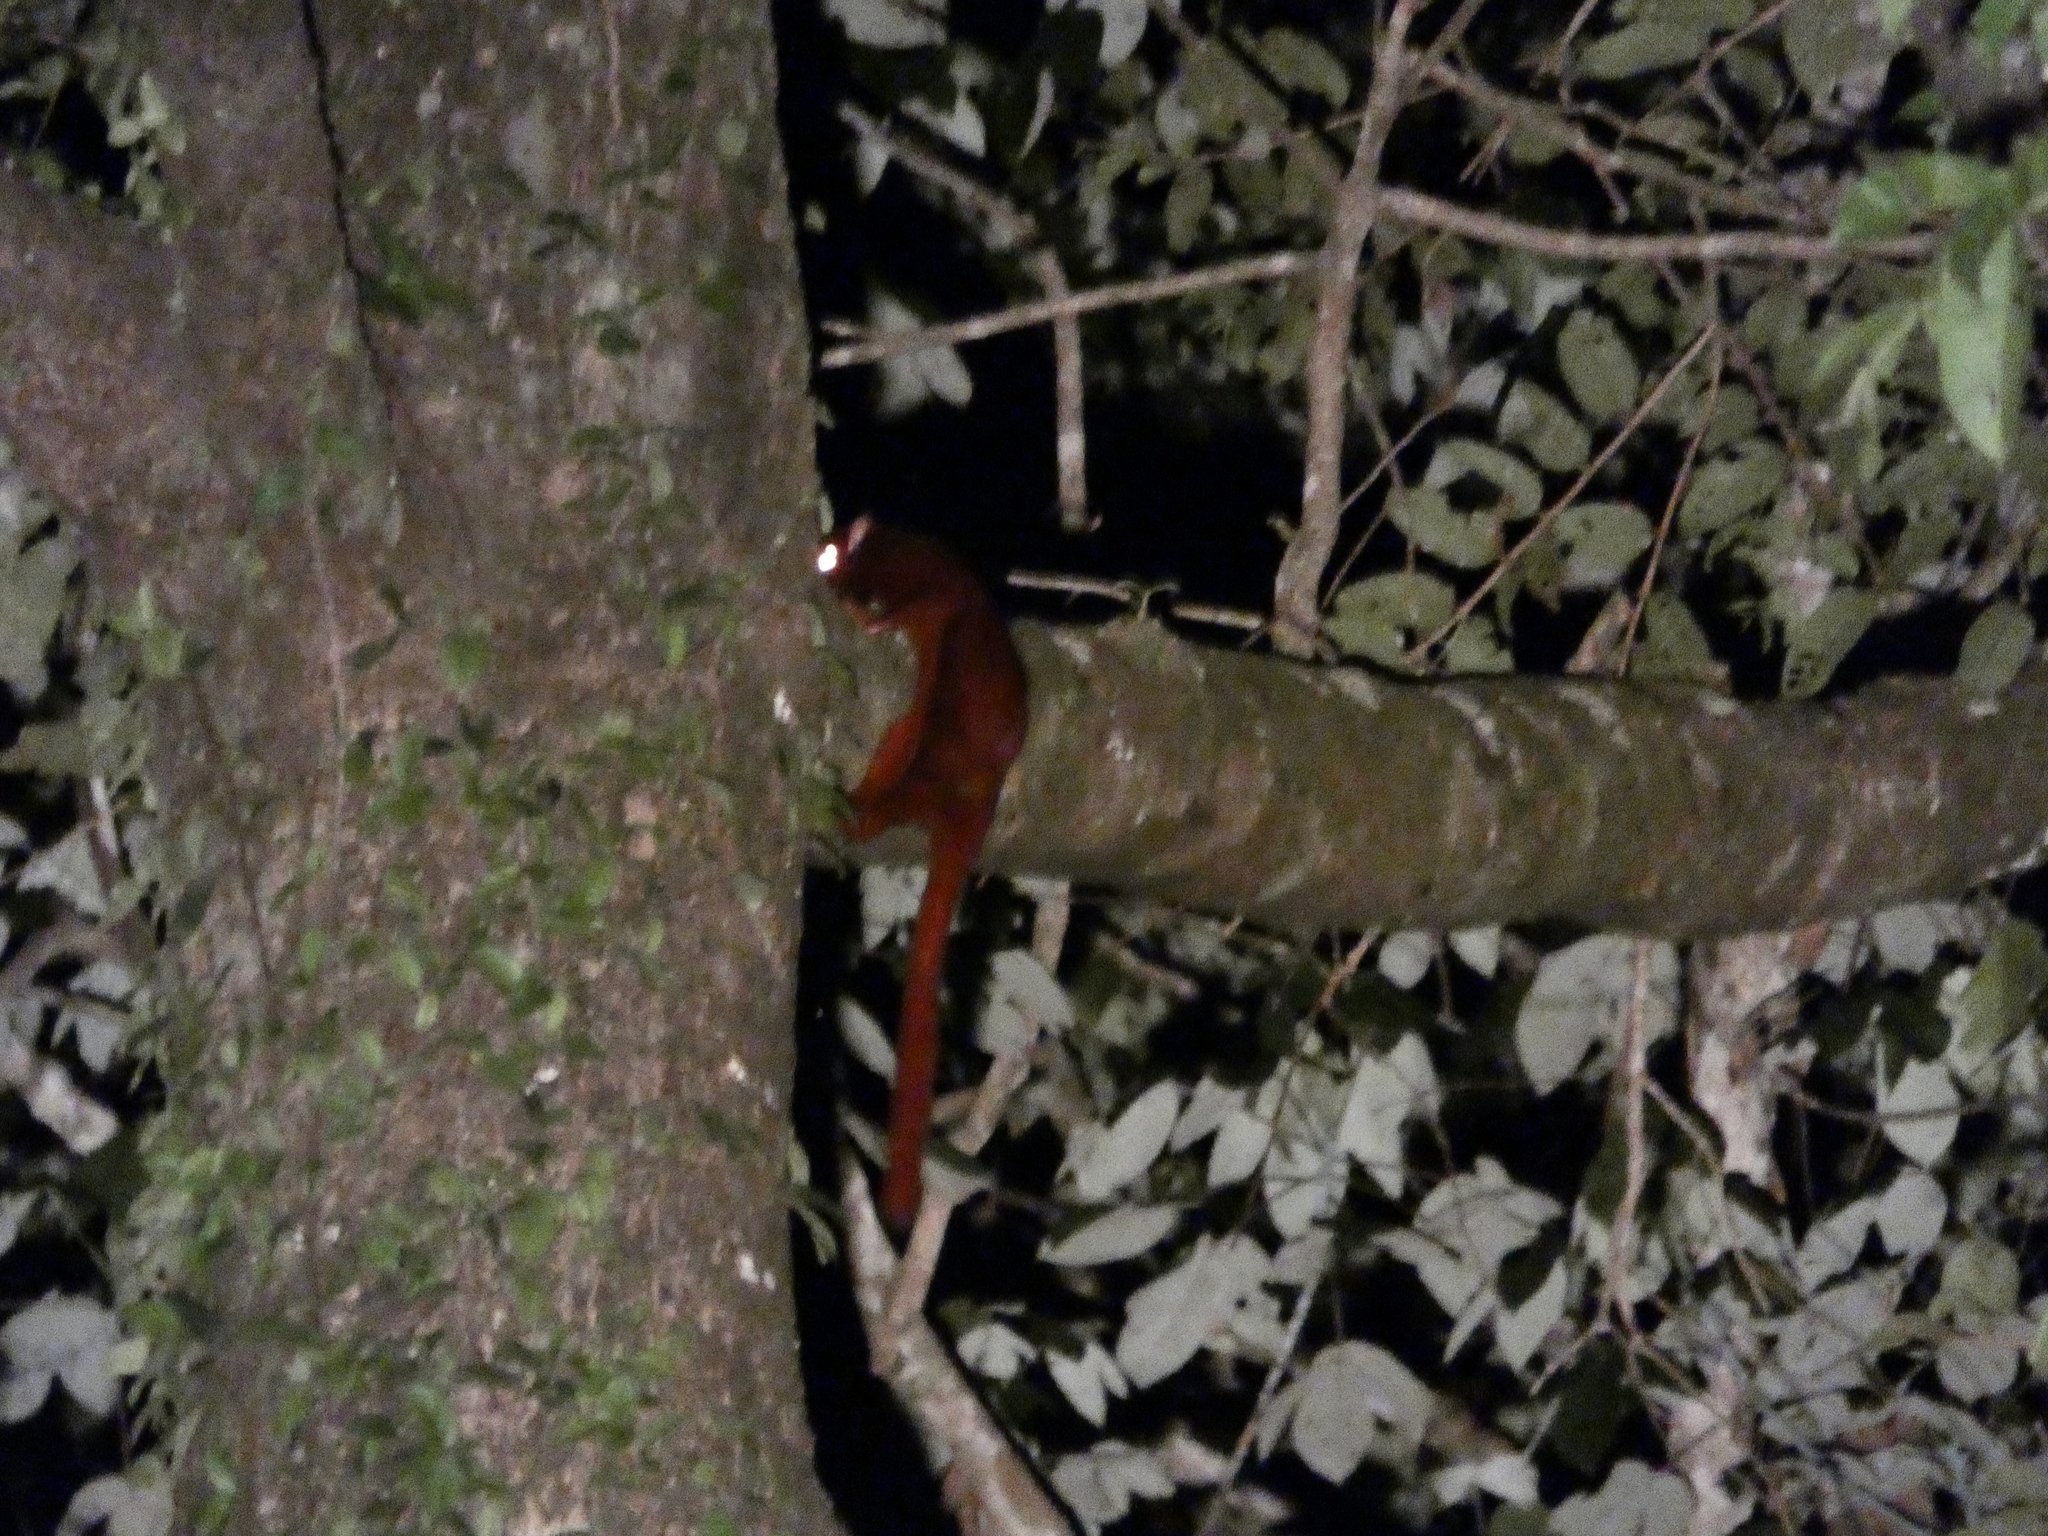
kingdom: Animalia
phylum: Chordata
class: Mammalia
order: Rodentia
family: Sciuridae
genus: Aeromys
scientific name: Aeromys thomasi
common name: Thomas's flying squirrel
